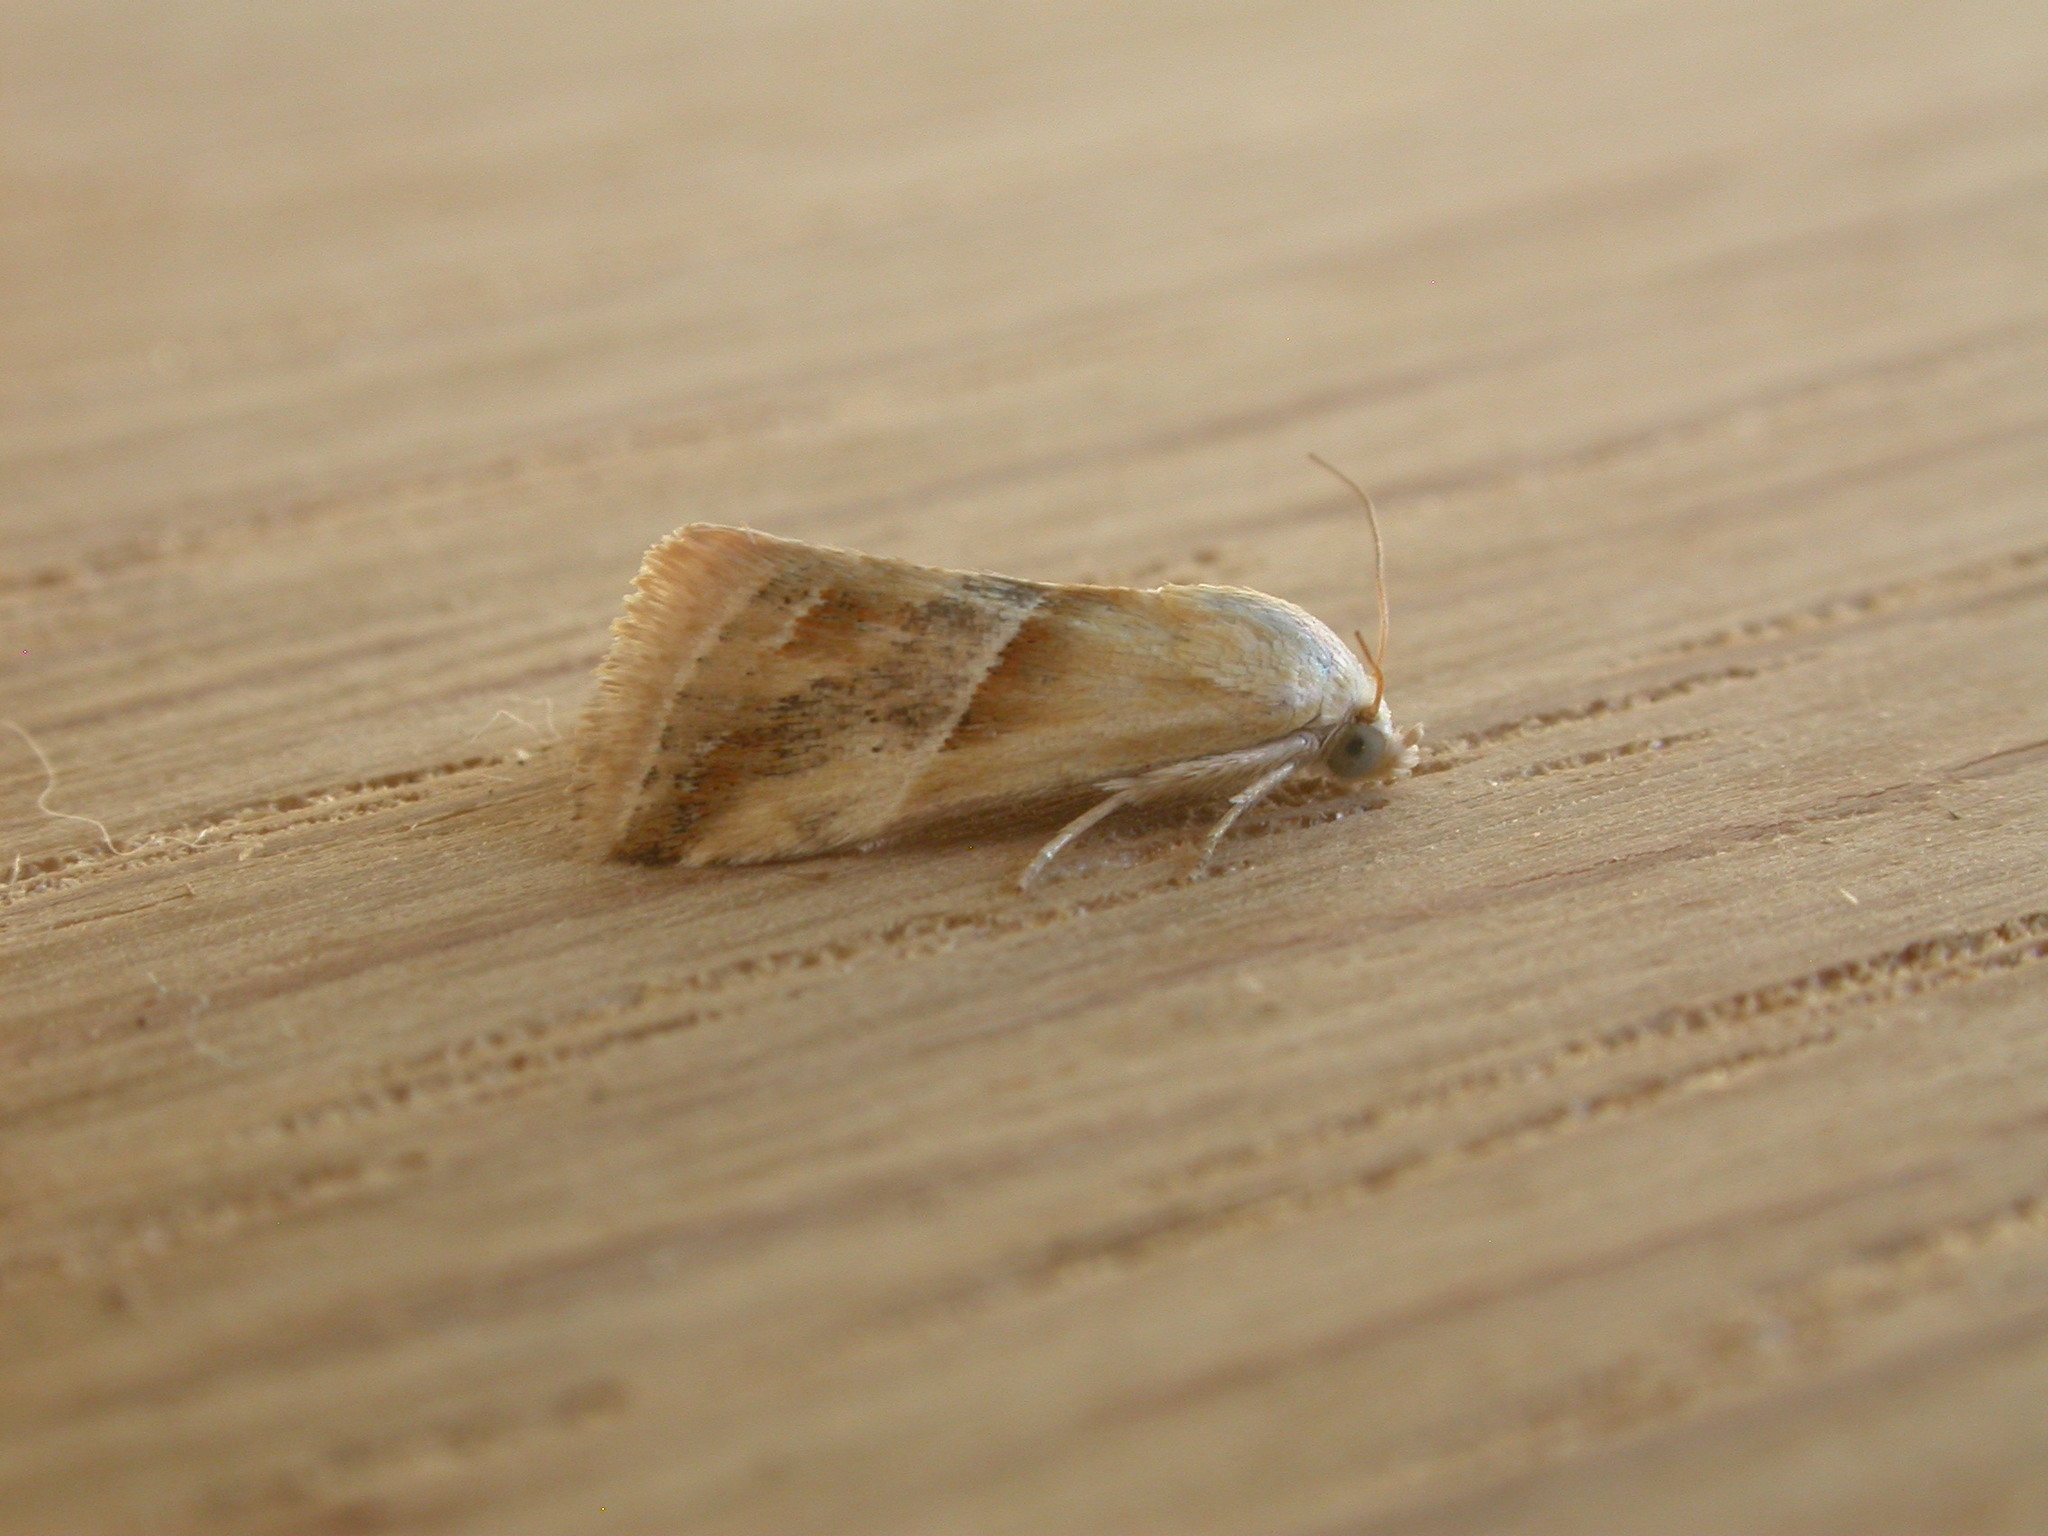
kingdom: Animalia
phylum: Arthropoda
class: Insecta
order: Lepidoptera
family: Noctuidae
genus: Eublemma
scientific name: Eublemma inconspicua
